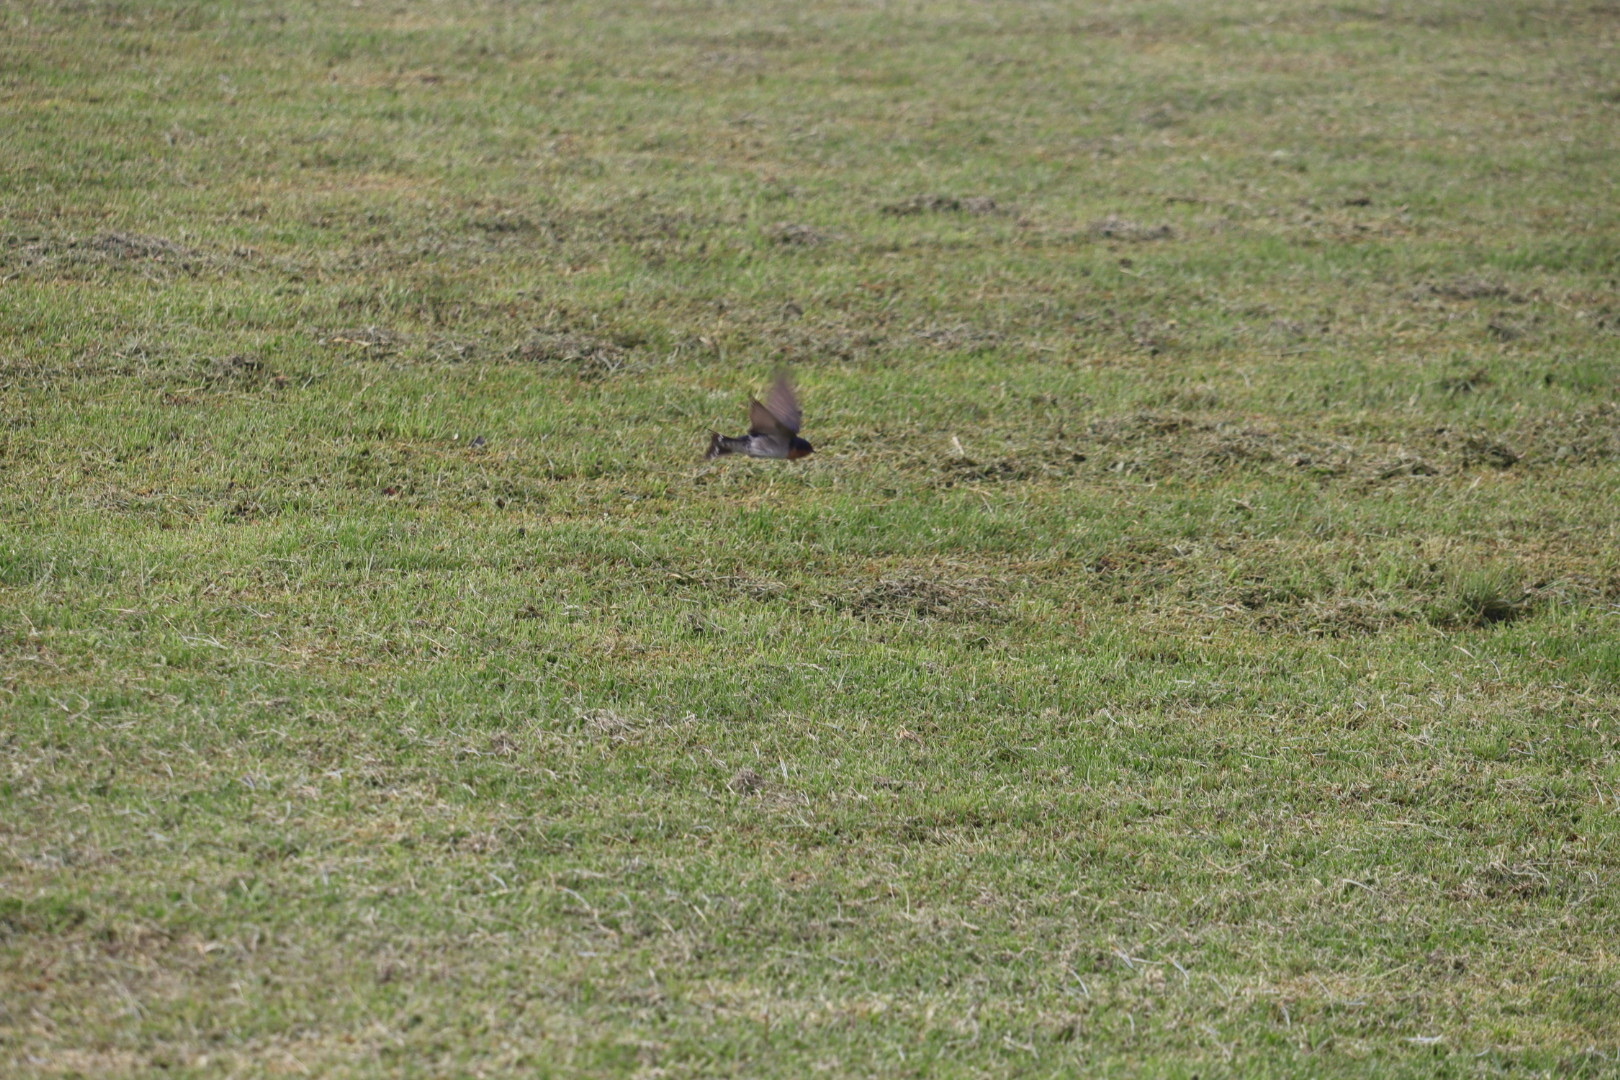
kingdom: Animalia
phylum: Chordata
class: Aves
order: Passeriformes
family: Hirundinidae
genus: Hirundo
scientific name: Hirundo neoxena
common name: Welcome swallow
